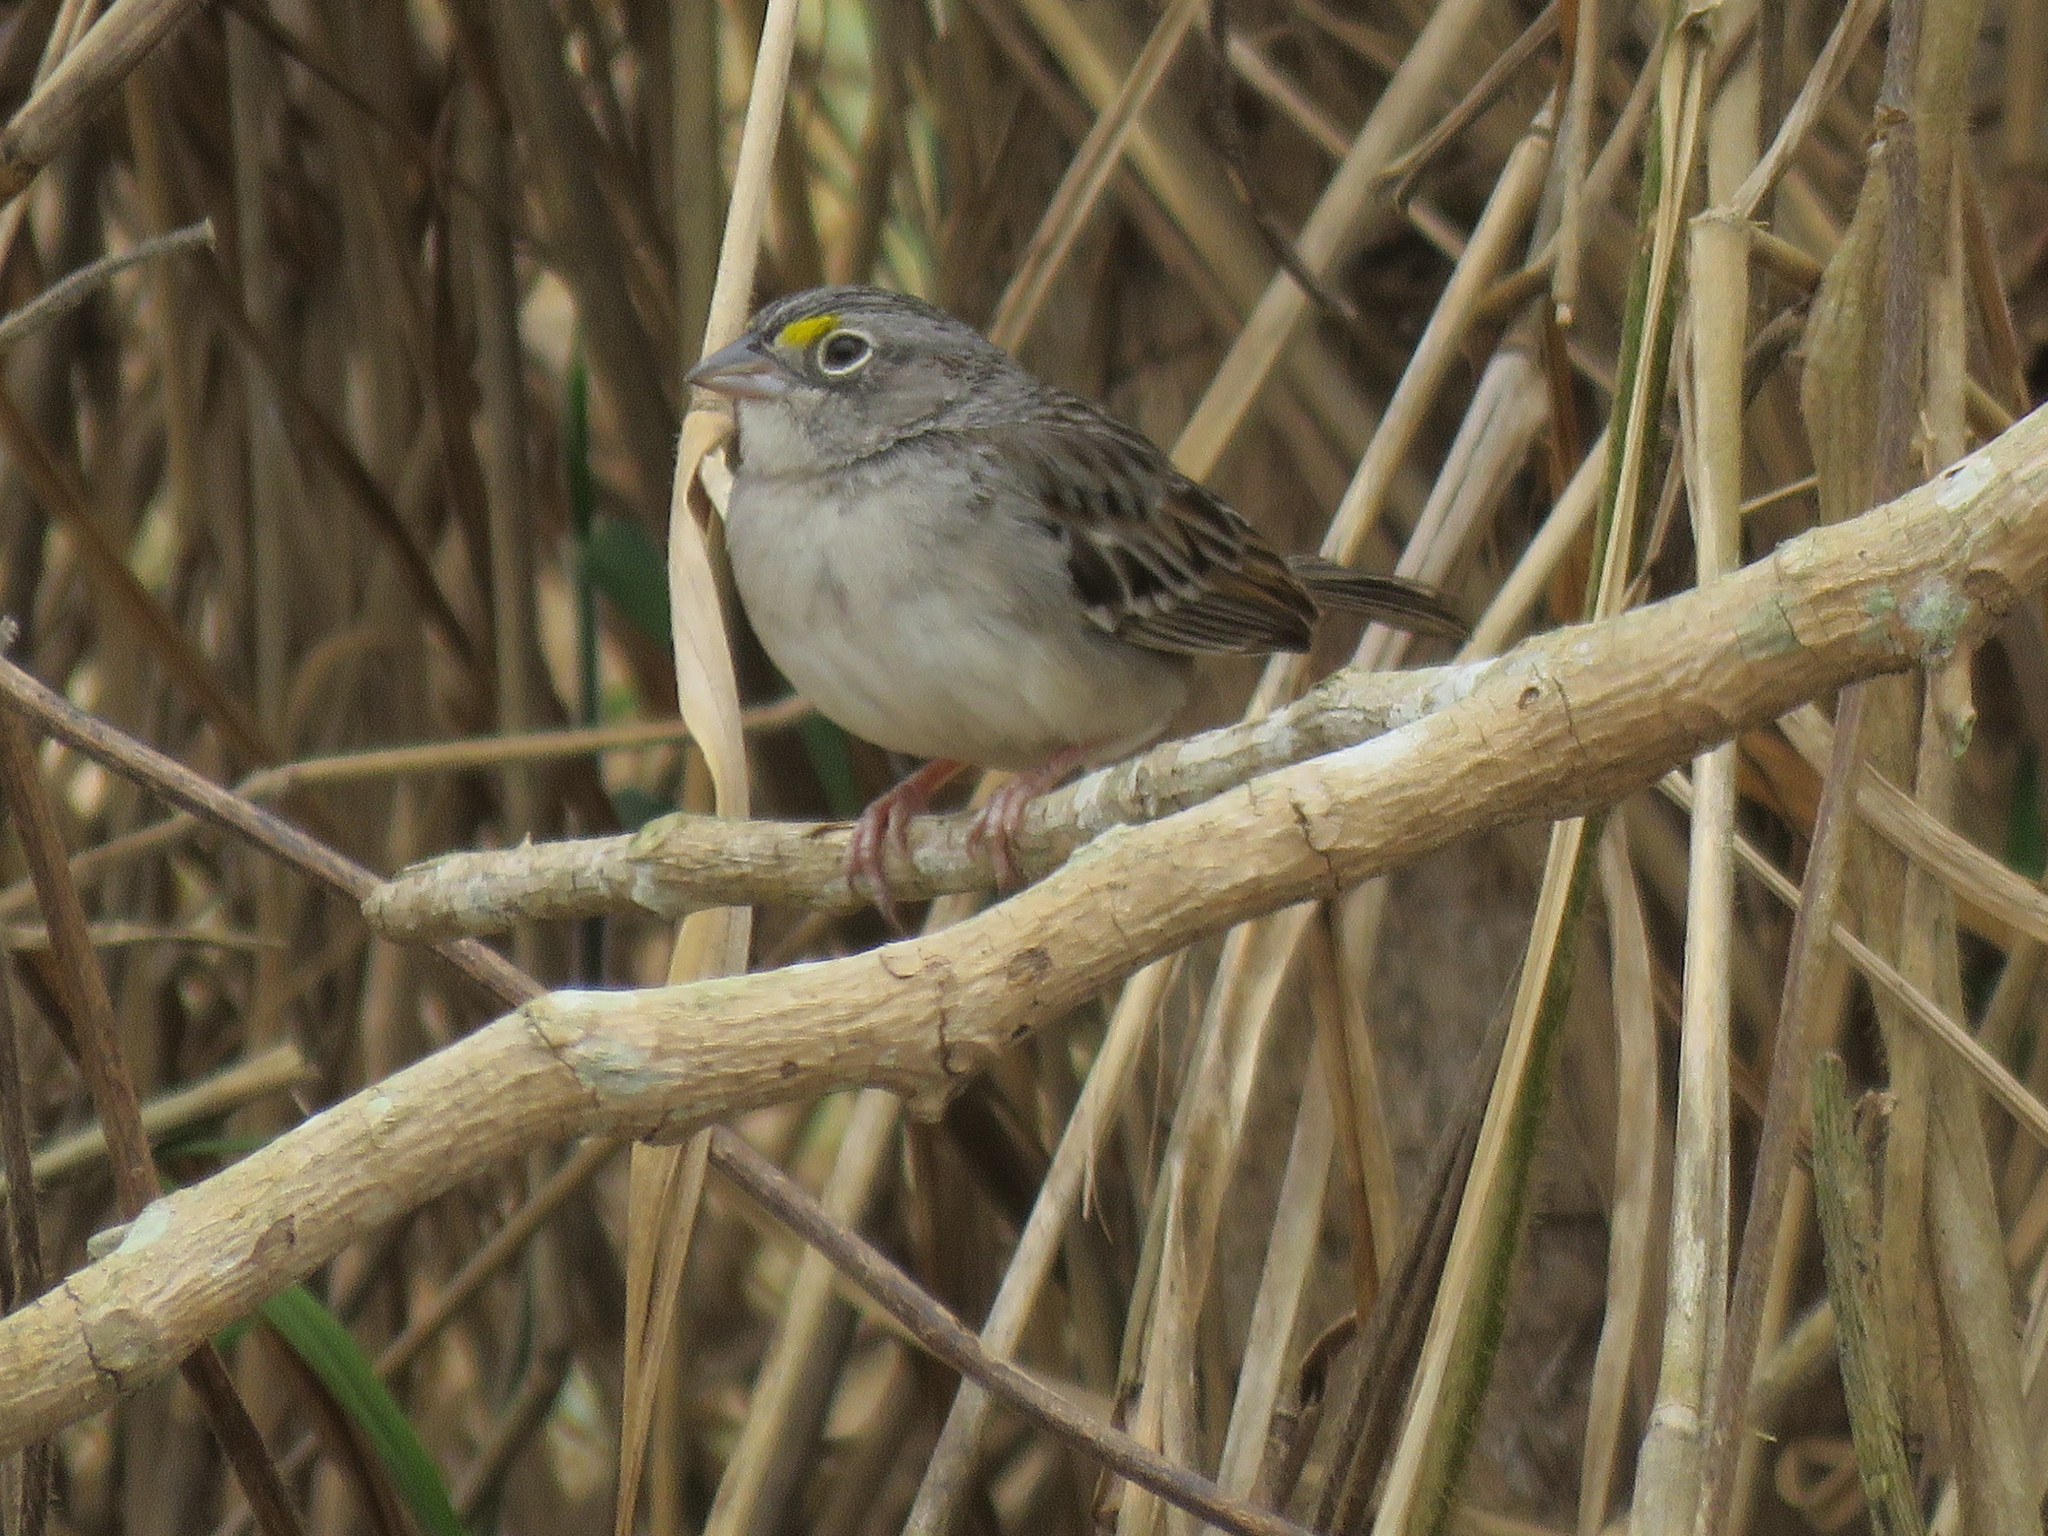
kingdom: Animalia
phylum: Chordata
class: Aves
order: Passeriformes
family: Passerellidae
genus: Ammodramus
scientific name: Ammodramus humeralis
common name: Grassland sparrow
